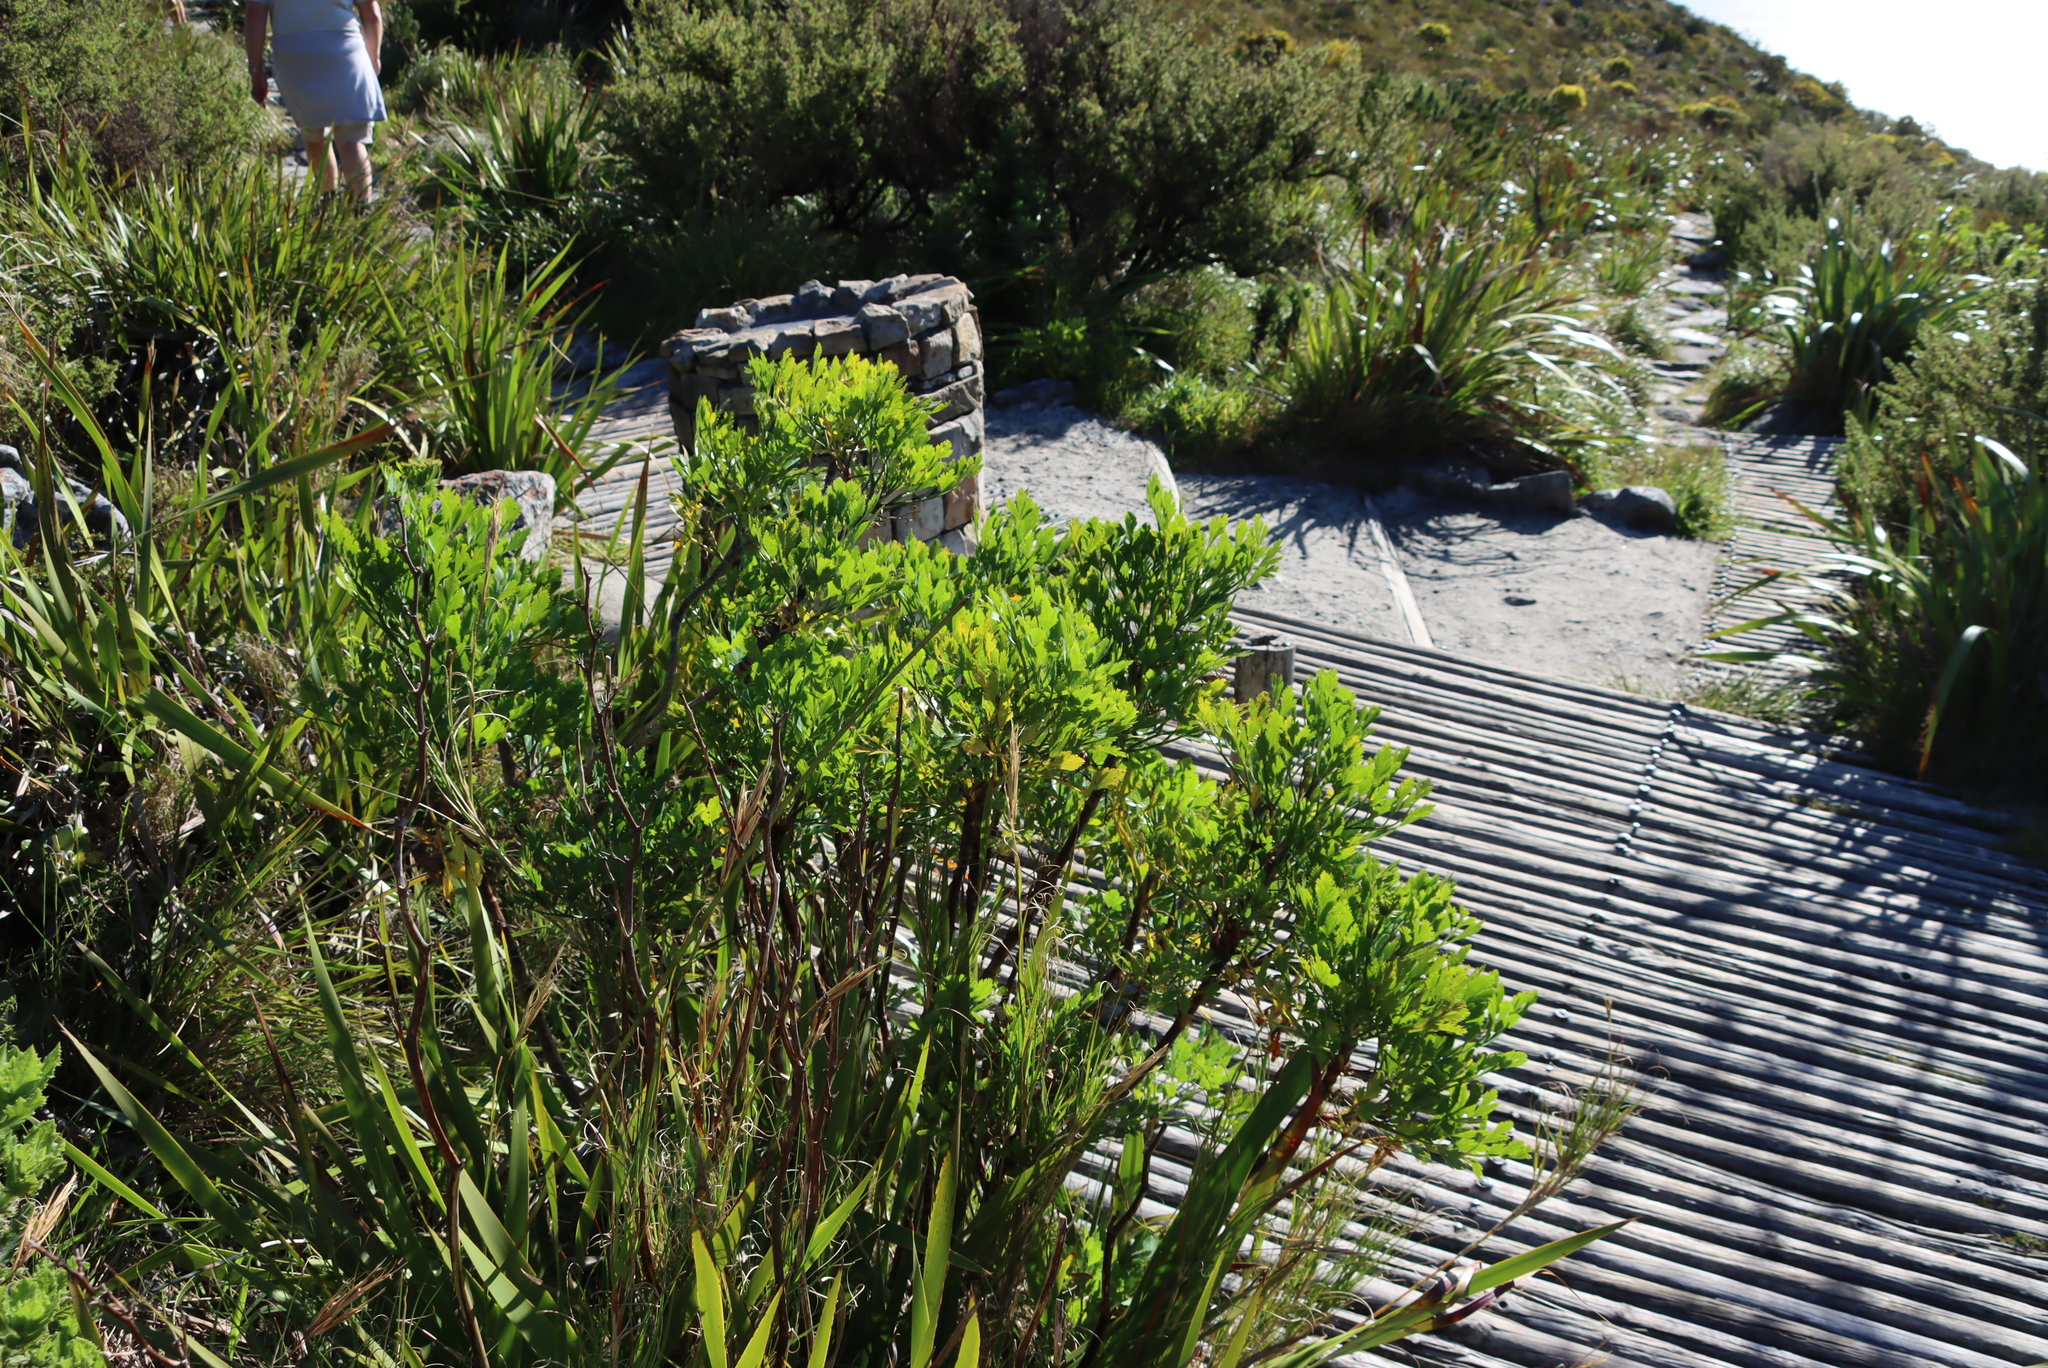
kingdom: Plantae
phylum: Tracheophyta
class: Magnoliopsida
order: Apiales
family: Apiaceae
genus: Notobubon
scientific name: Notobubon galbanum
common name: Blisterbush
